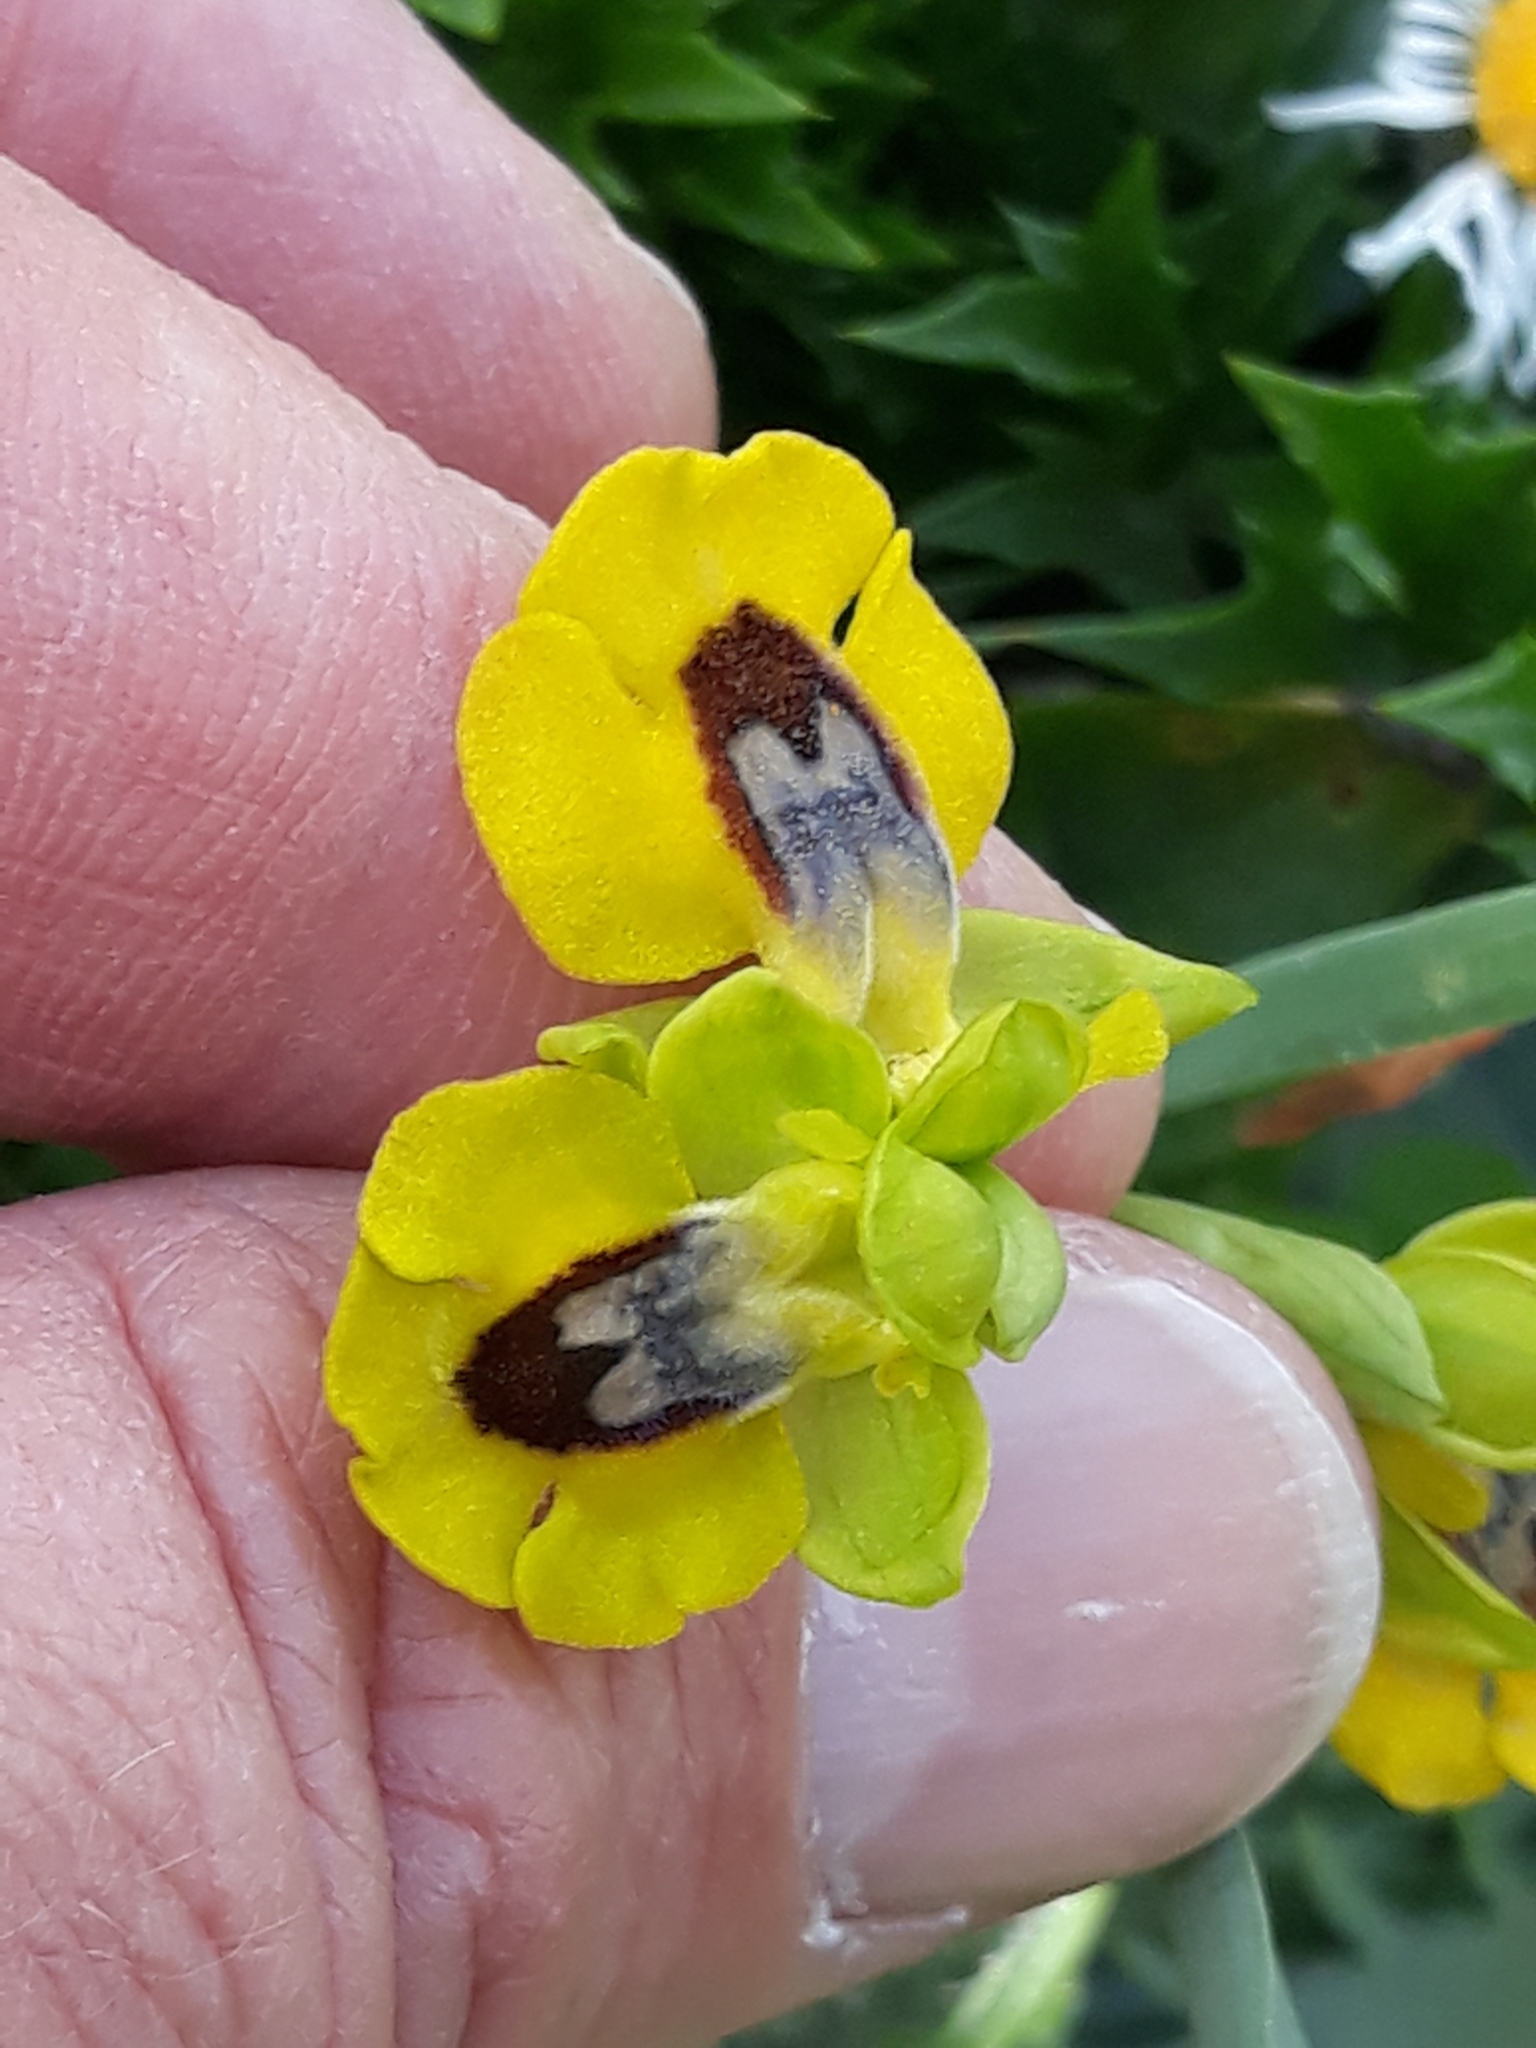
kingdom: Plantae
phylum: Tracheophyta
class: Liliopsida
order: Asparagales
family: Orchidaceae
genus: Ophrys
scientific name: Ophrys lutea
